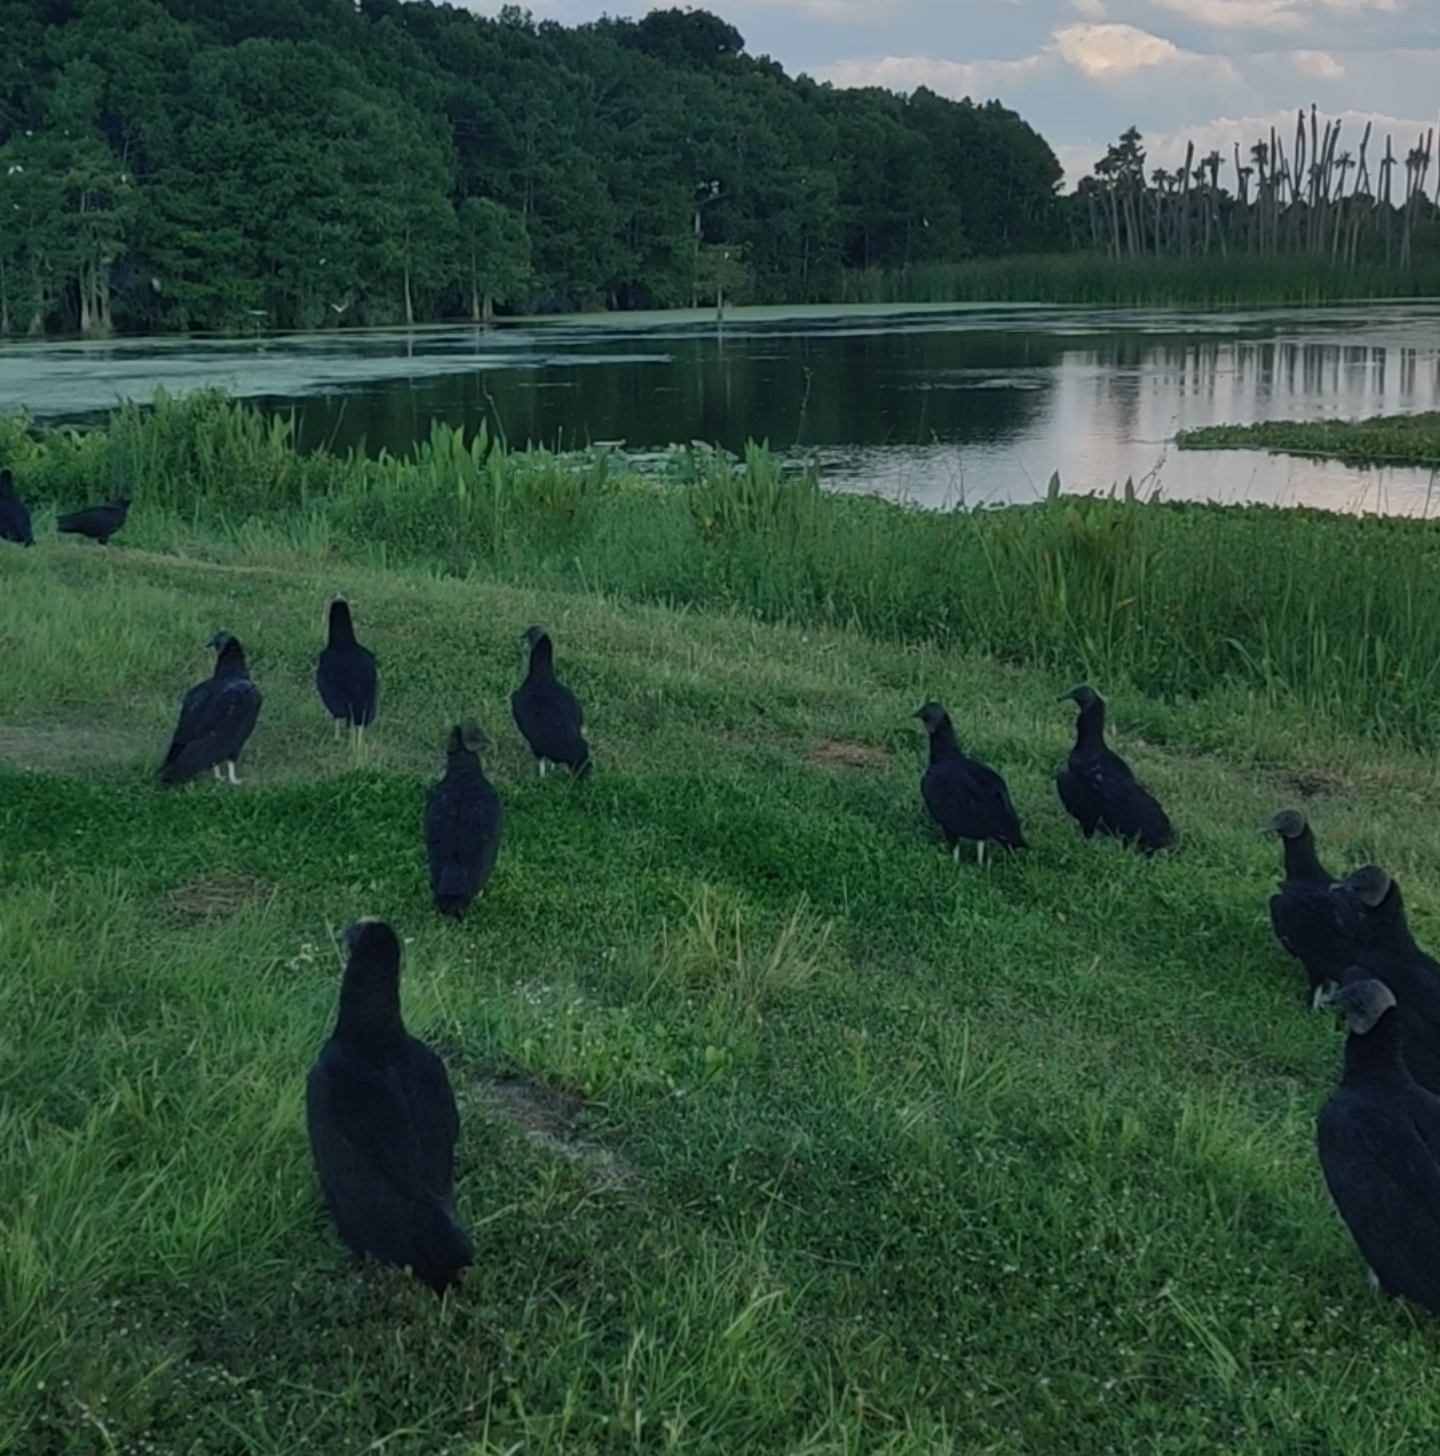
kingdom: Animalia
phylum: Chordata
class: Aves
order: Accipitriformes
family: Cathartidae
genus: Coragyps
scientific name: Coragyps atratus
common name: Black vulture
